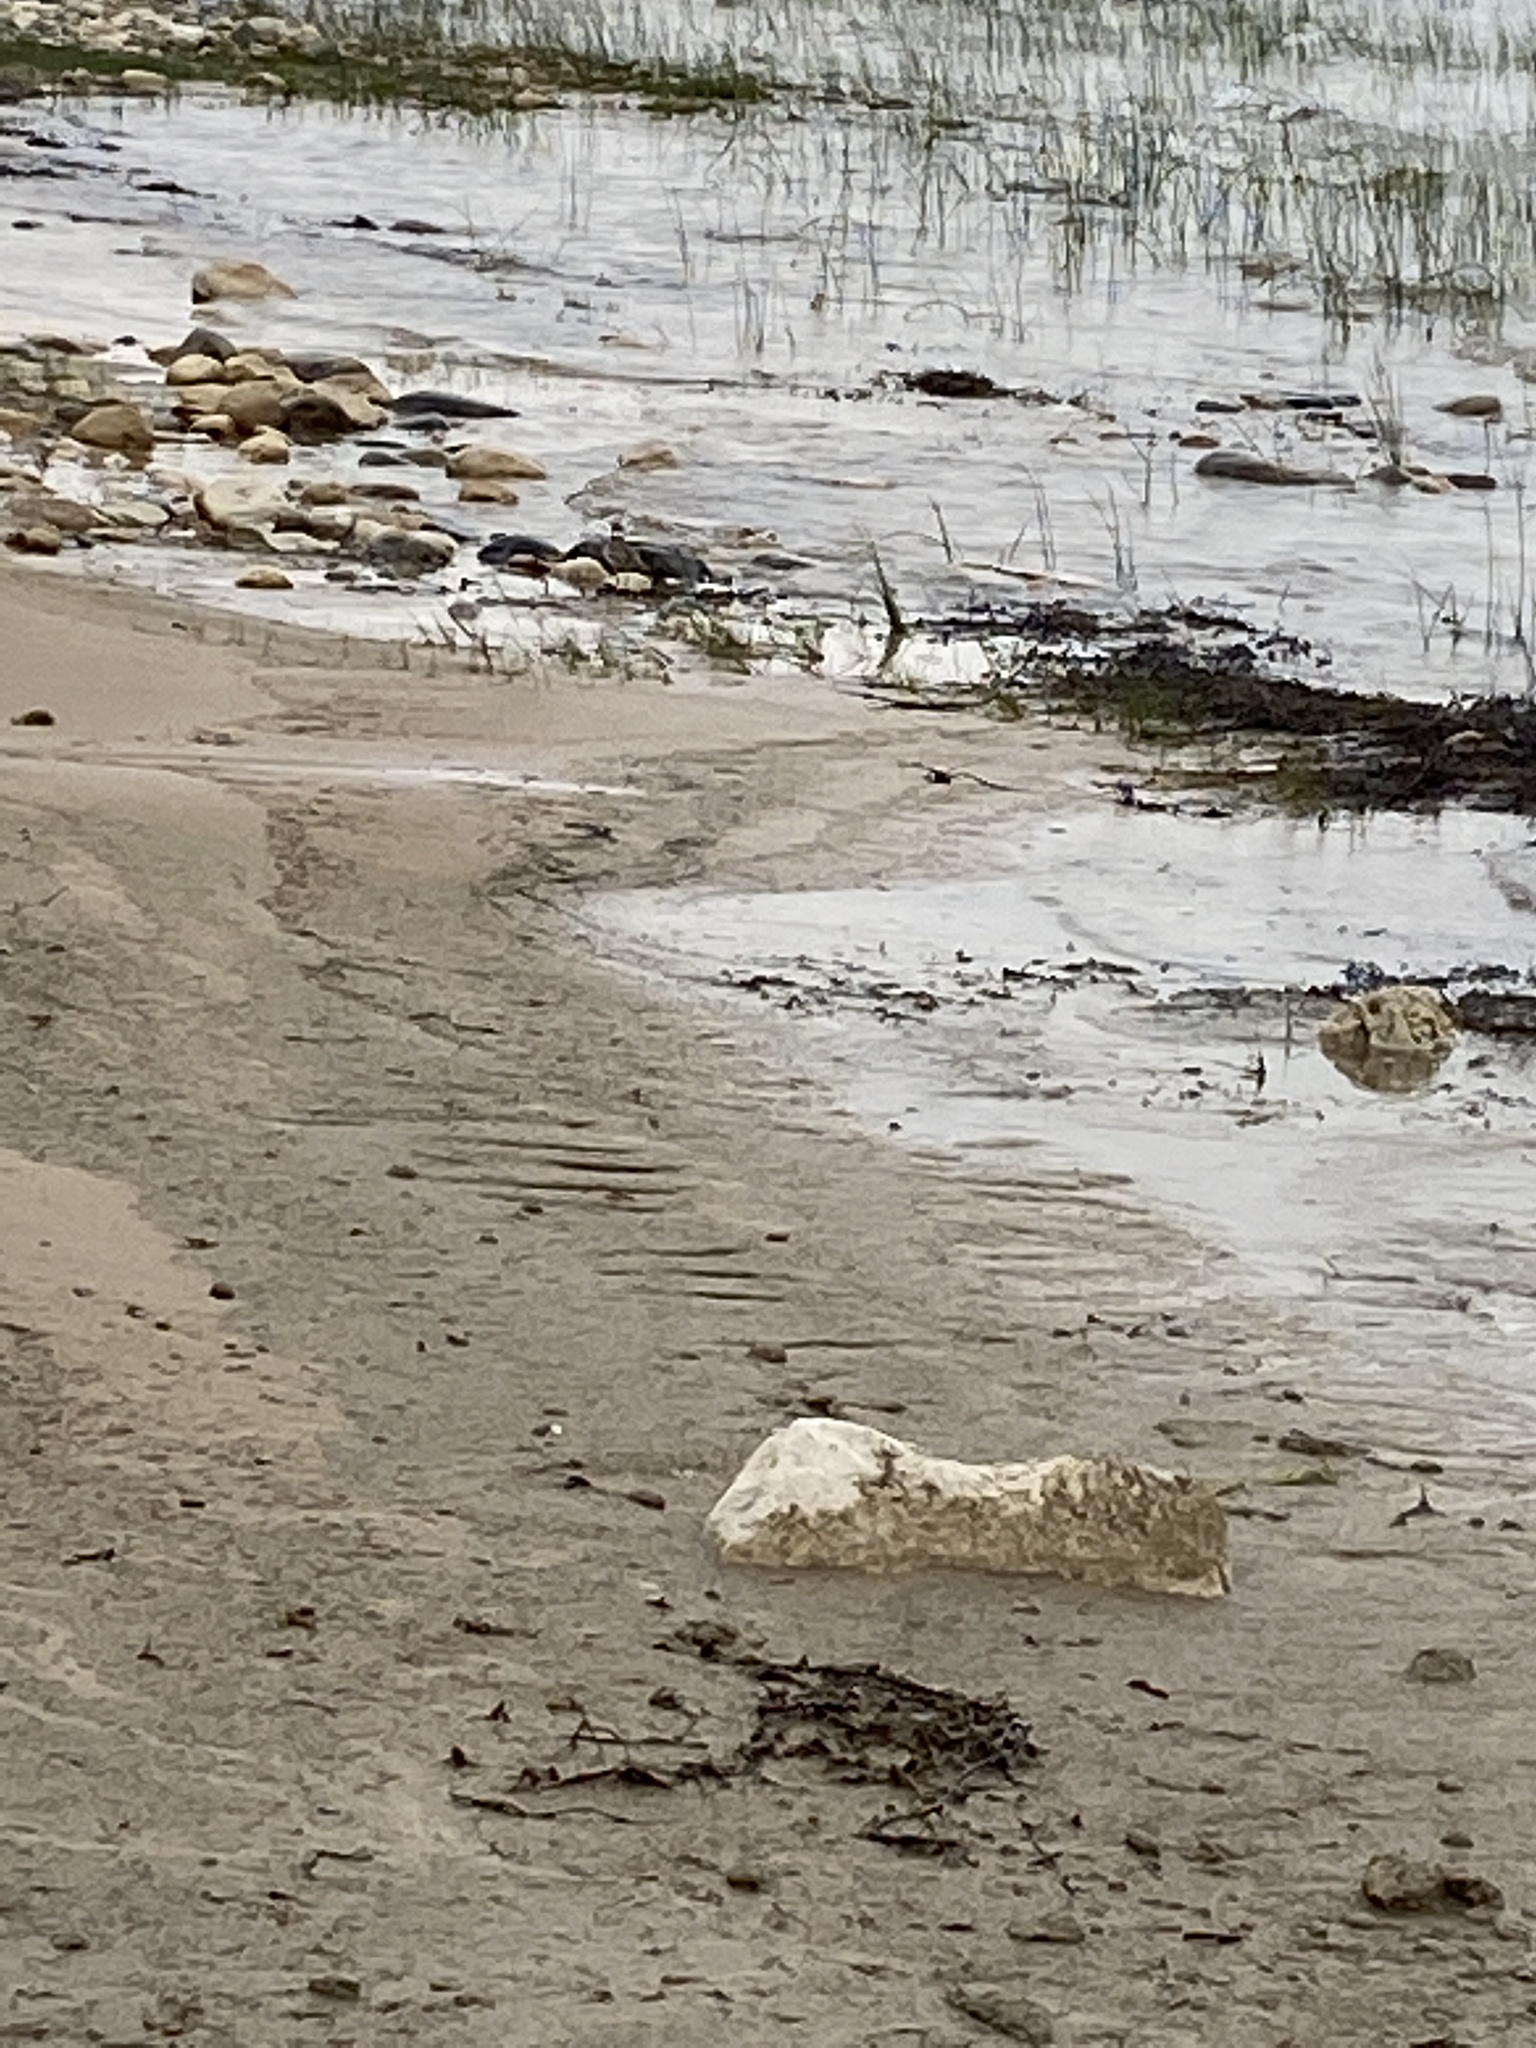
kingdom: Animalia
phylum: Chordata
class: Aves
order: Charadriiformes
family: Charadriidae
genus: Charadrius
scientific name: Charadrius vociferus
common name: Killdeer
